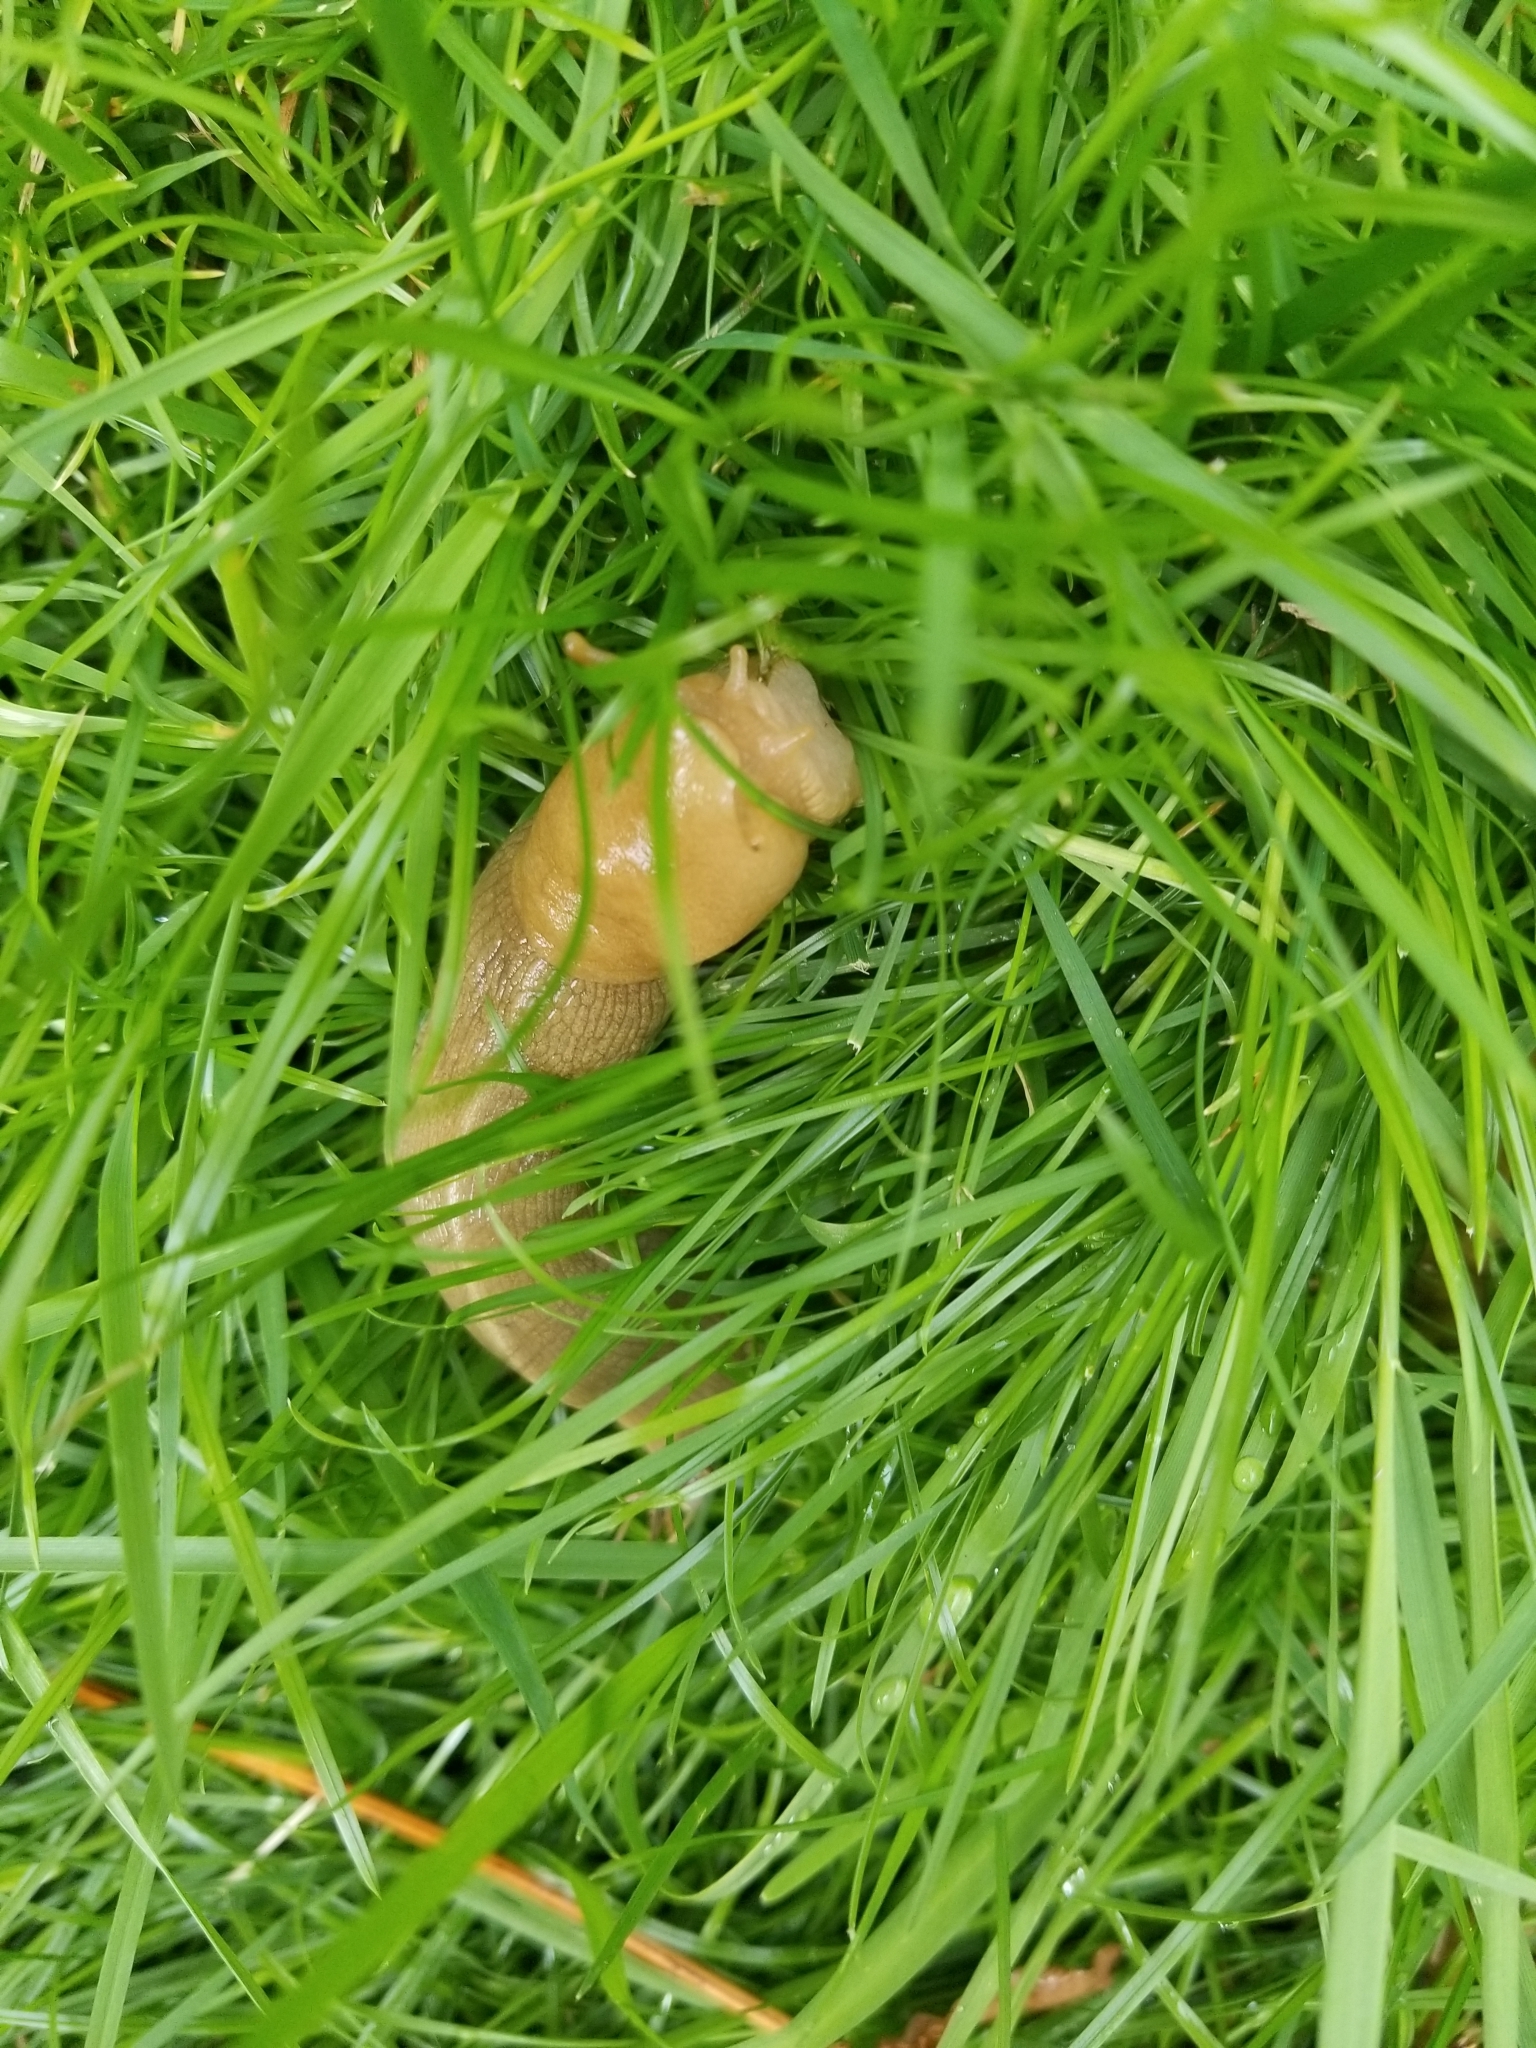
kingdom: Animalia
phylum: Mollusca
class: Gastropoda
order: Stylommatophora
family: Ariolimacidae
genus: Ariolimax
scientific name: Ariolimax columbianus
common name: Pacific banana slug
